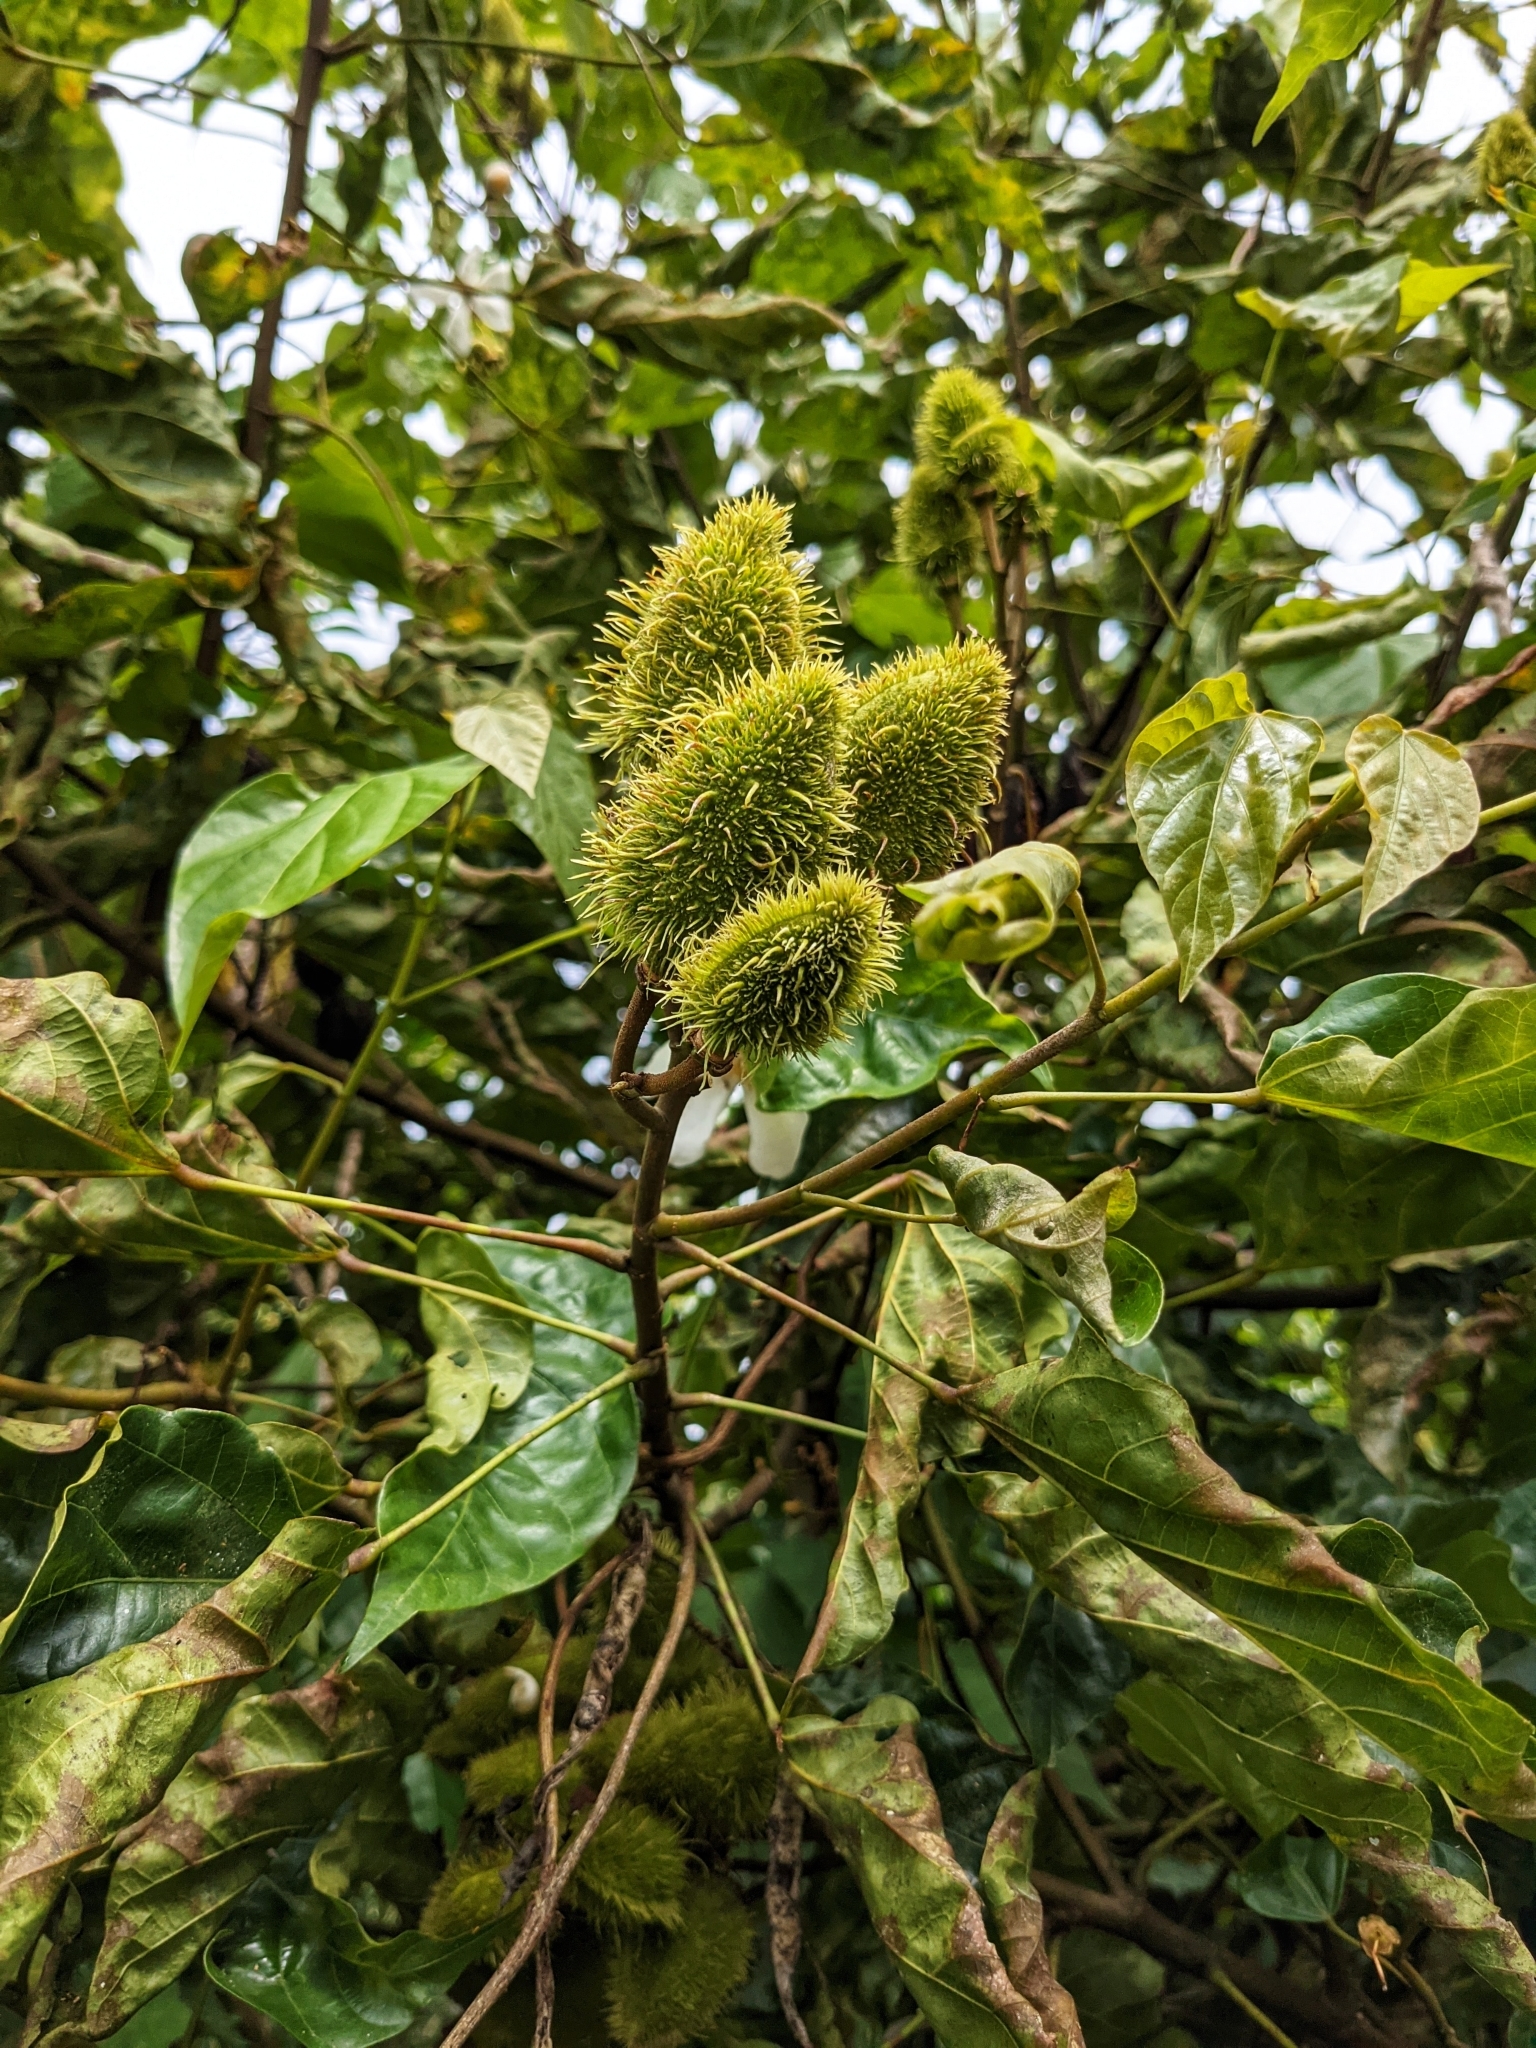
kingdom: Plantae
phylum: Tracheophyta
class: Magnoliopsida
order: Malvales
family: Bixaceae
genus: Bixa
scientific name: Bixa orellana
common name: Lipsticktree
